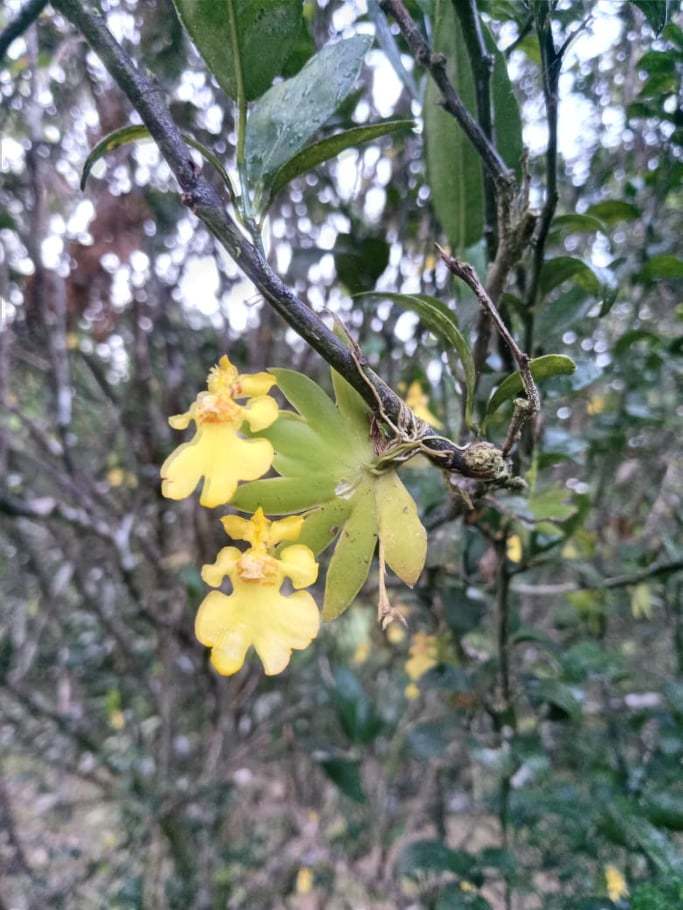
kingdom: Plantae
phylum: Tracheophyta
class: Liliopsida
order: Asparagales
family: Orchidaceae
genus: Erycina
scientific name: Erycina pusilla
